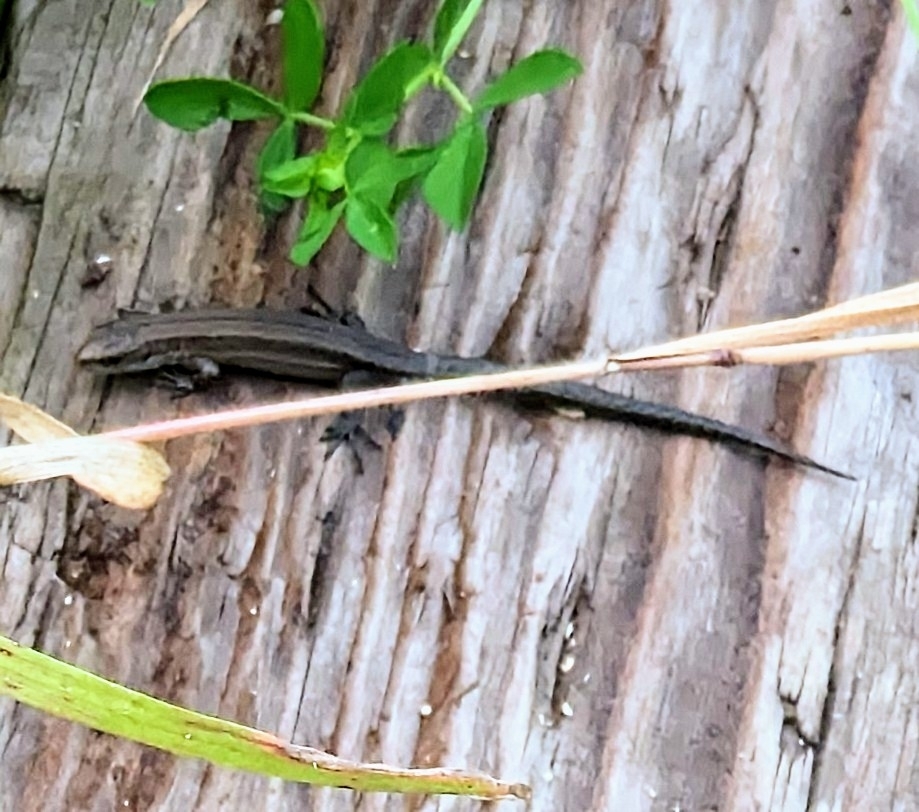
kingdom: Animalia
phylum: Chordata
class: Squamata
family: Lacertidae
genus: Zootoca
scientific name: Zootoca vivipara
